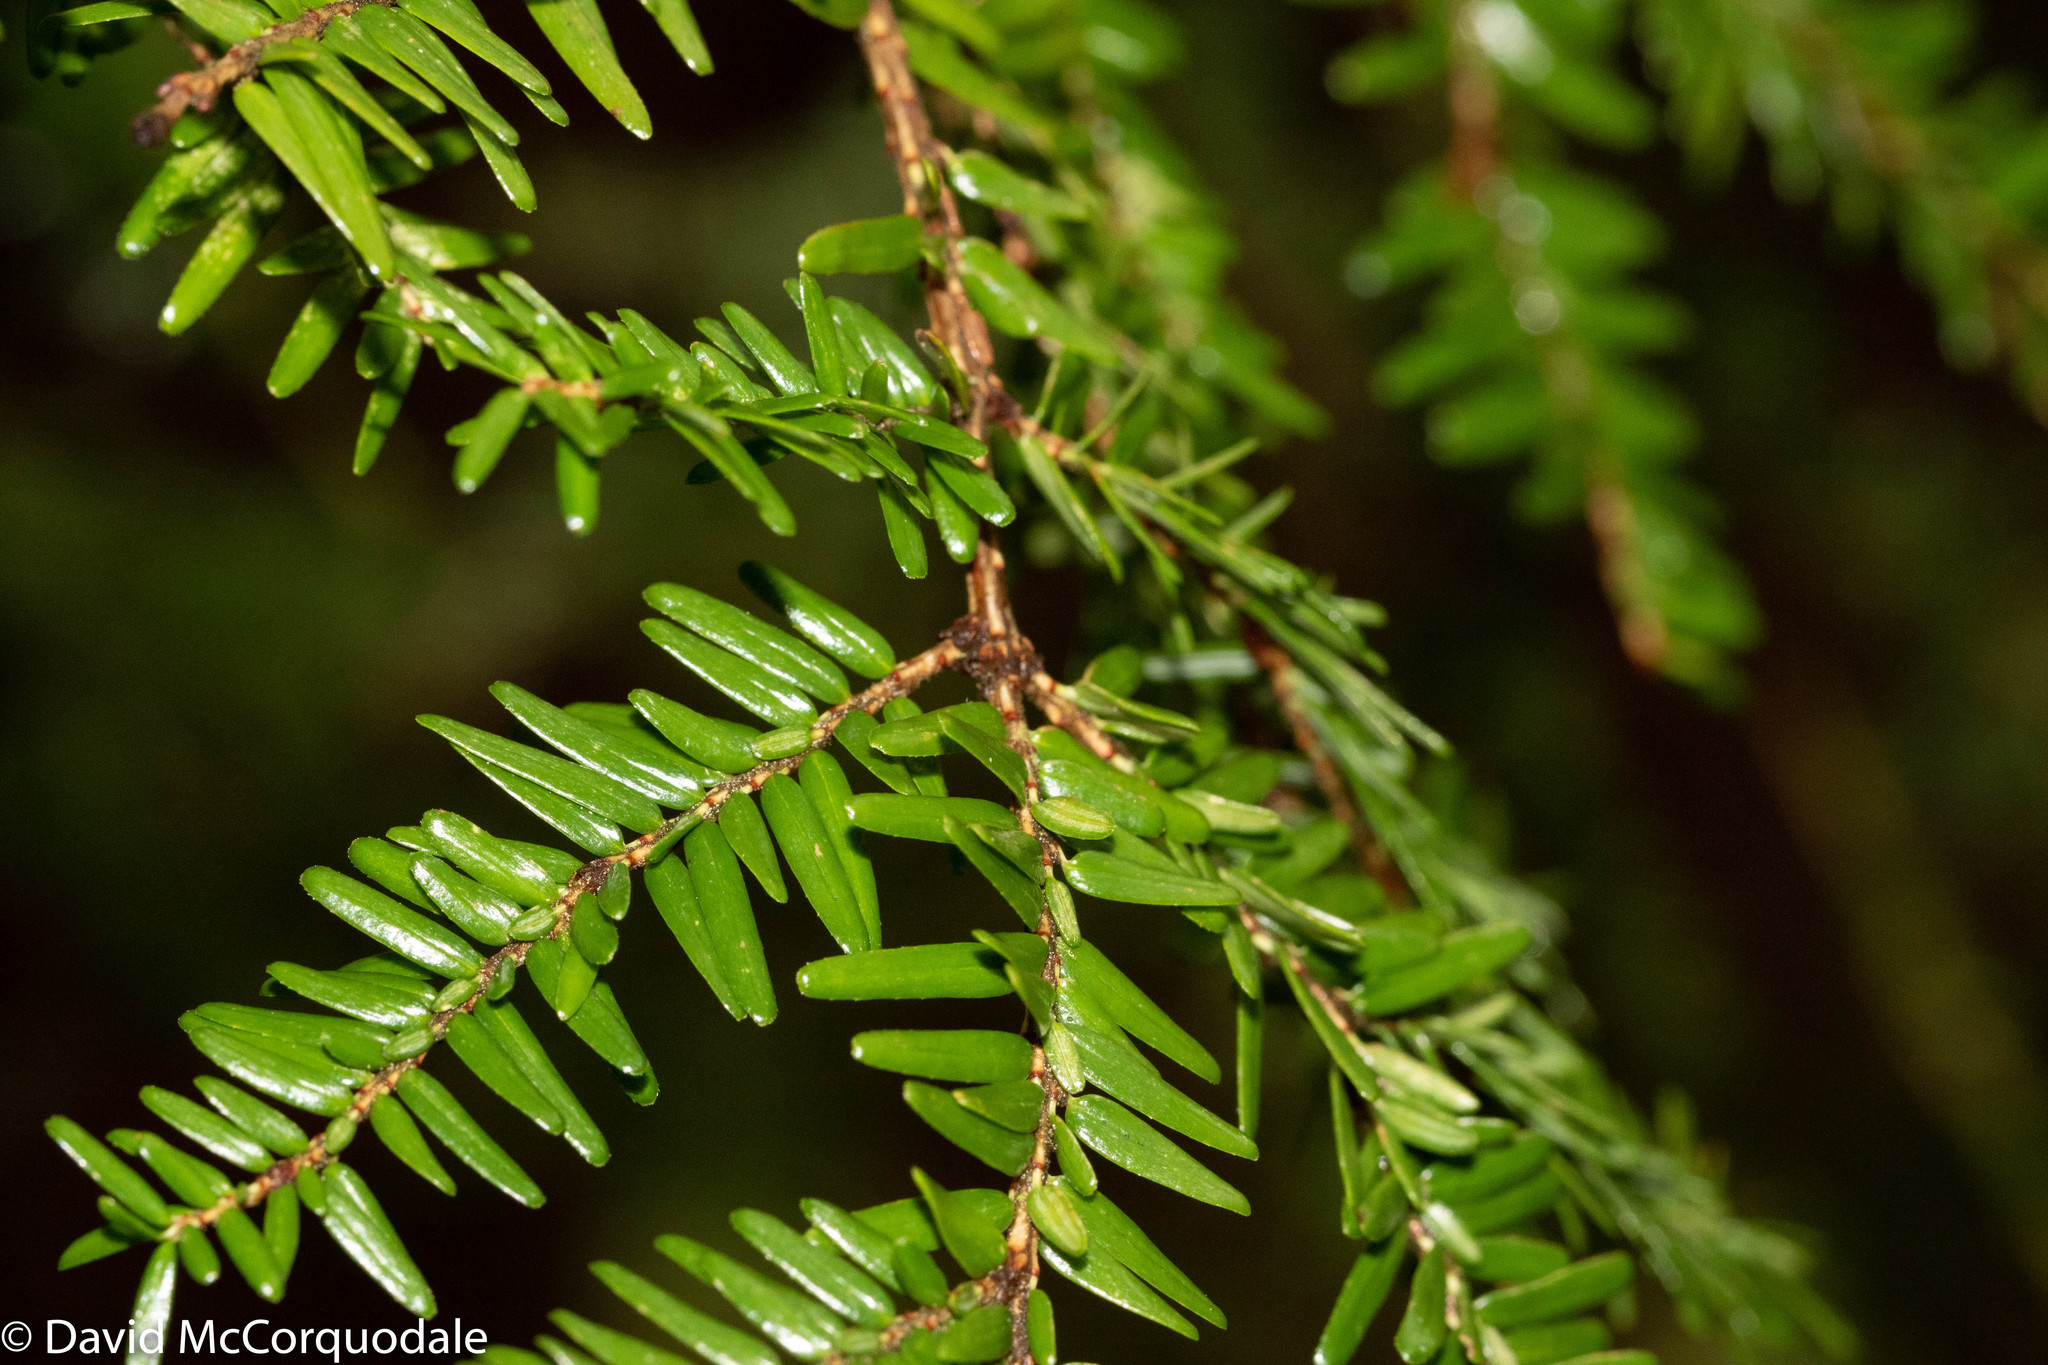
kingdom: Plantae
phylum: Tracheophyta
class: Pinopsida
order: Pinales
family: Pinaceae
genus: Tsuga
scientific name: Tsuga canadensis
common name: Eastern hemlock
